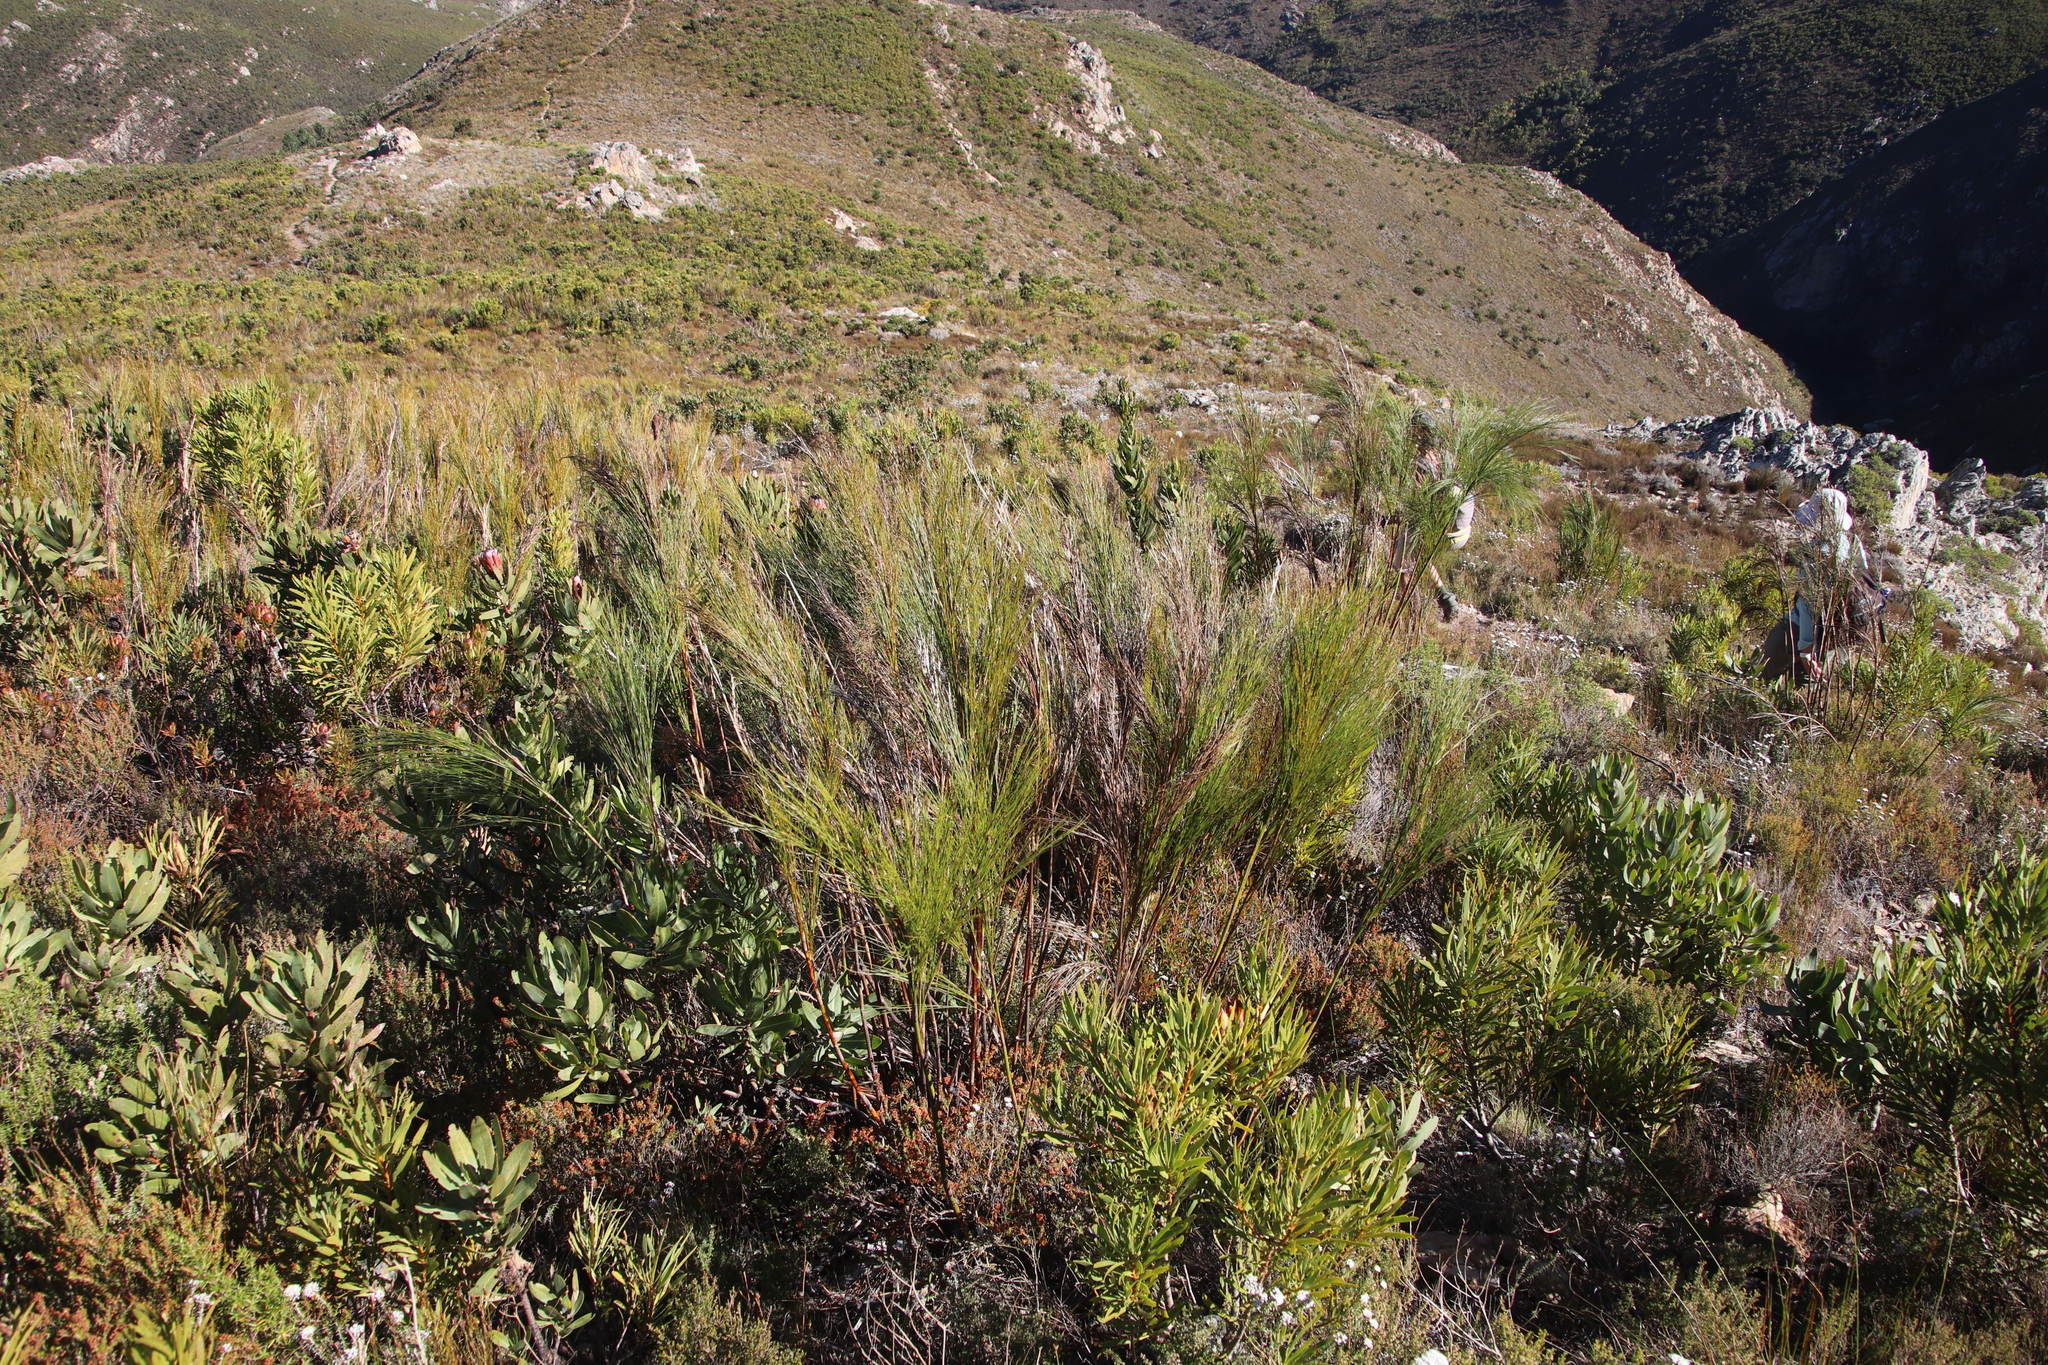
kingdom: Plantae
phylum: Tracheophyta
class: Liliopsida
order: Poales
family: Restionaceae
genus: Cannomois
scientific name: Cannomois virgata
